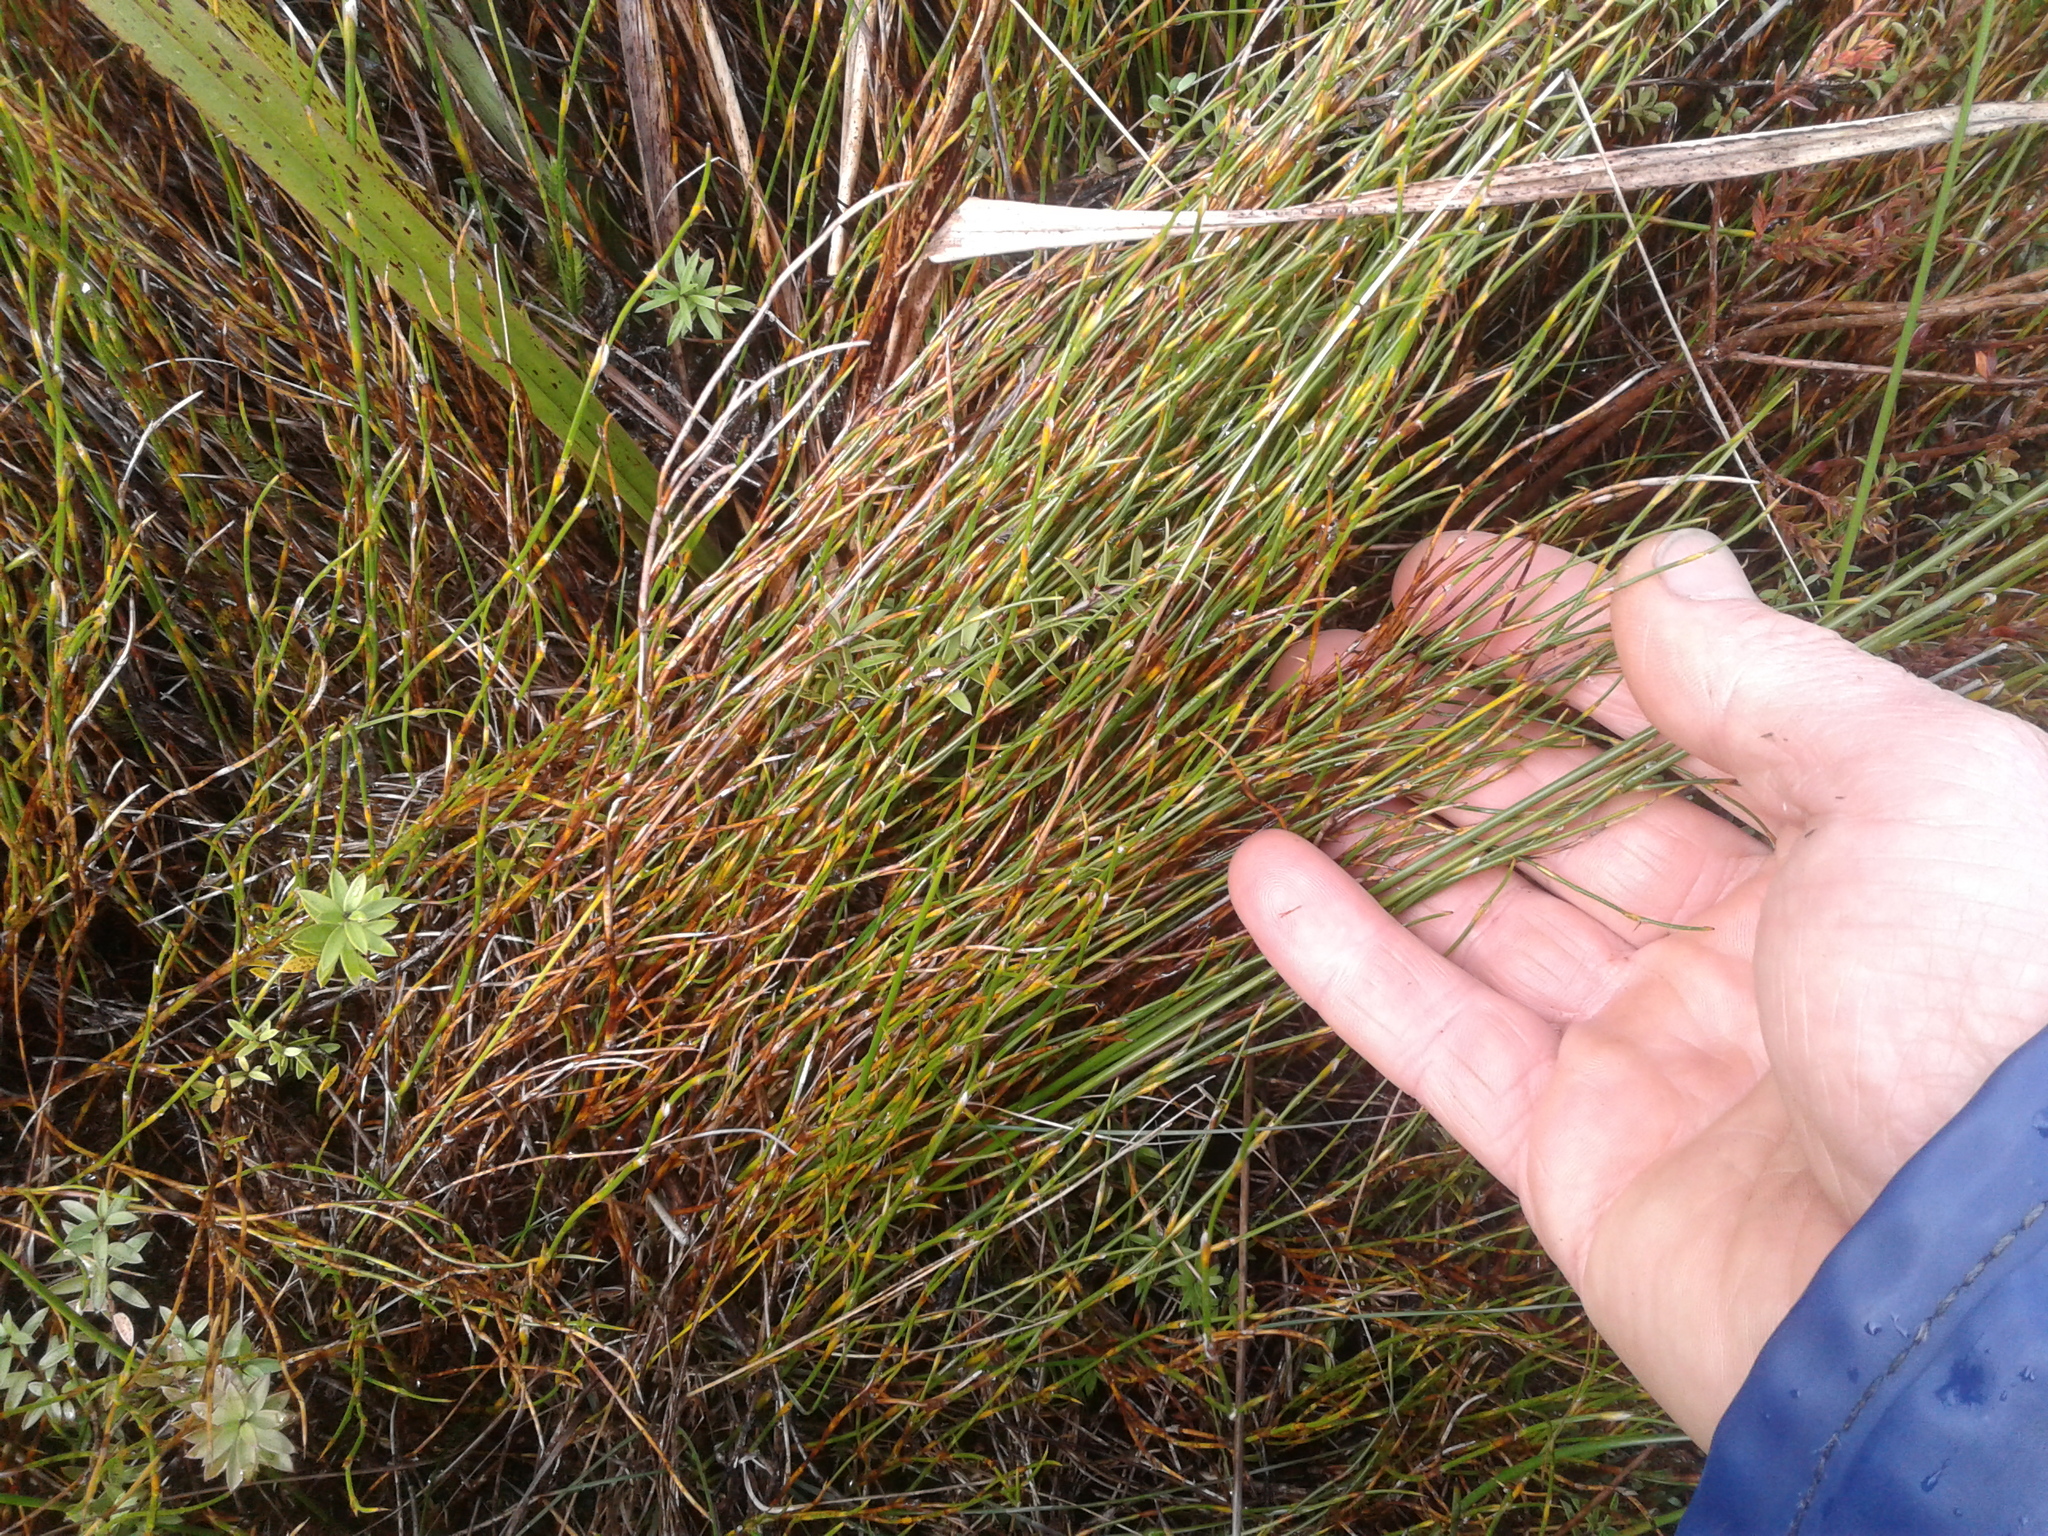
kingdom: Plantae
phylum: Tracheophyta
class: Liliopsida
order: Poales
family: Restionaceae
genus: Apodasmia
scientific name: Apodasmia similis
